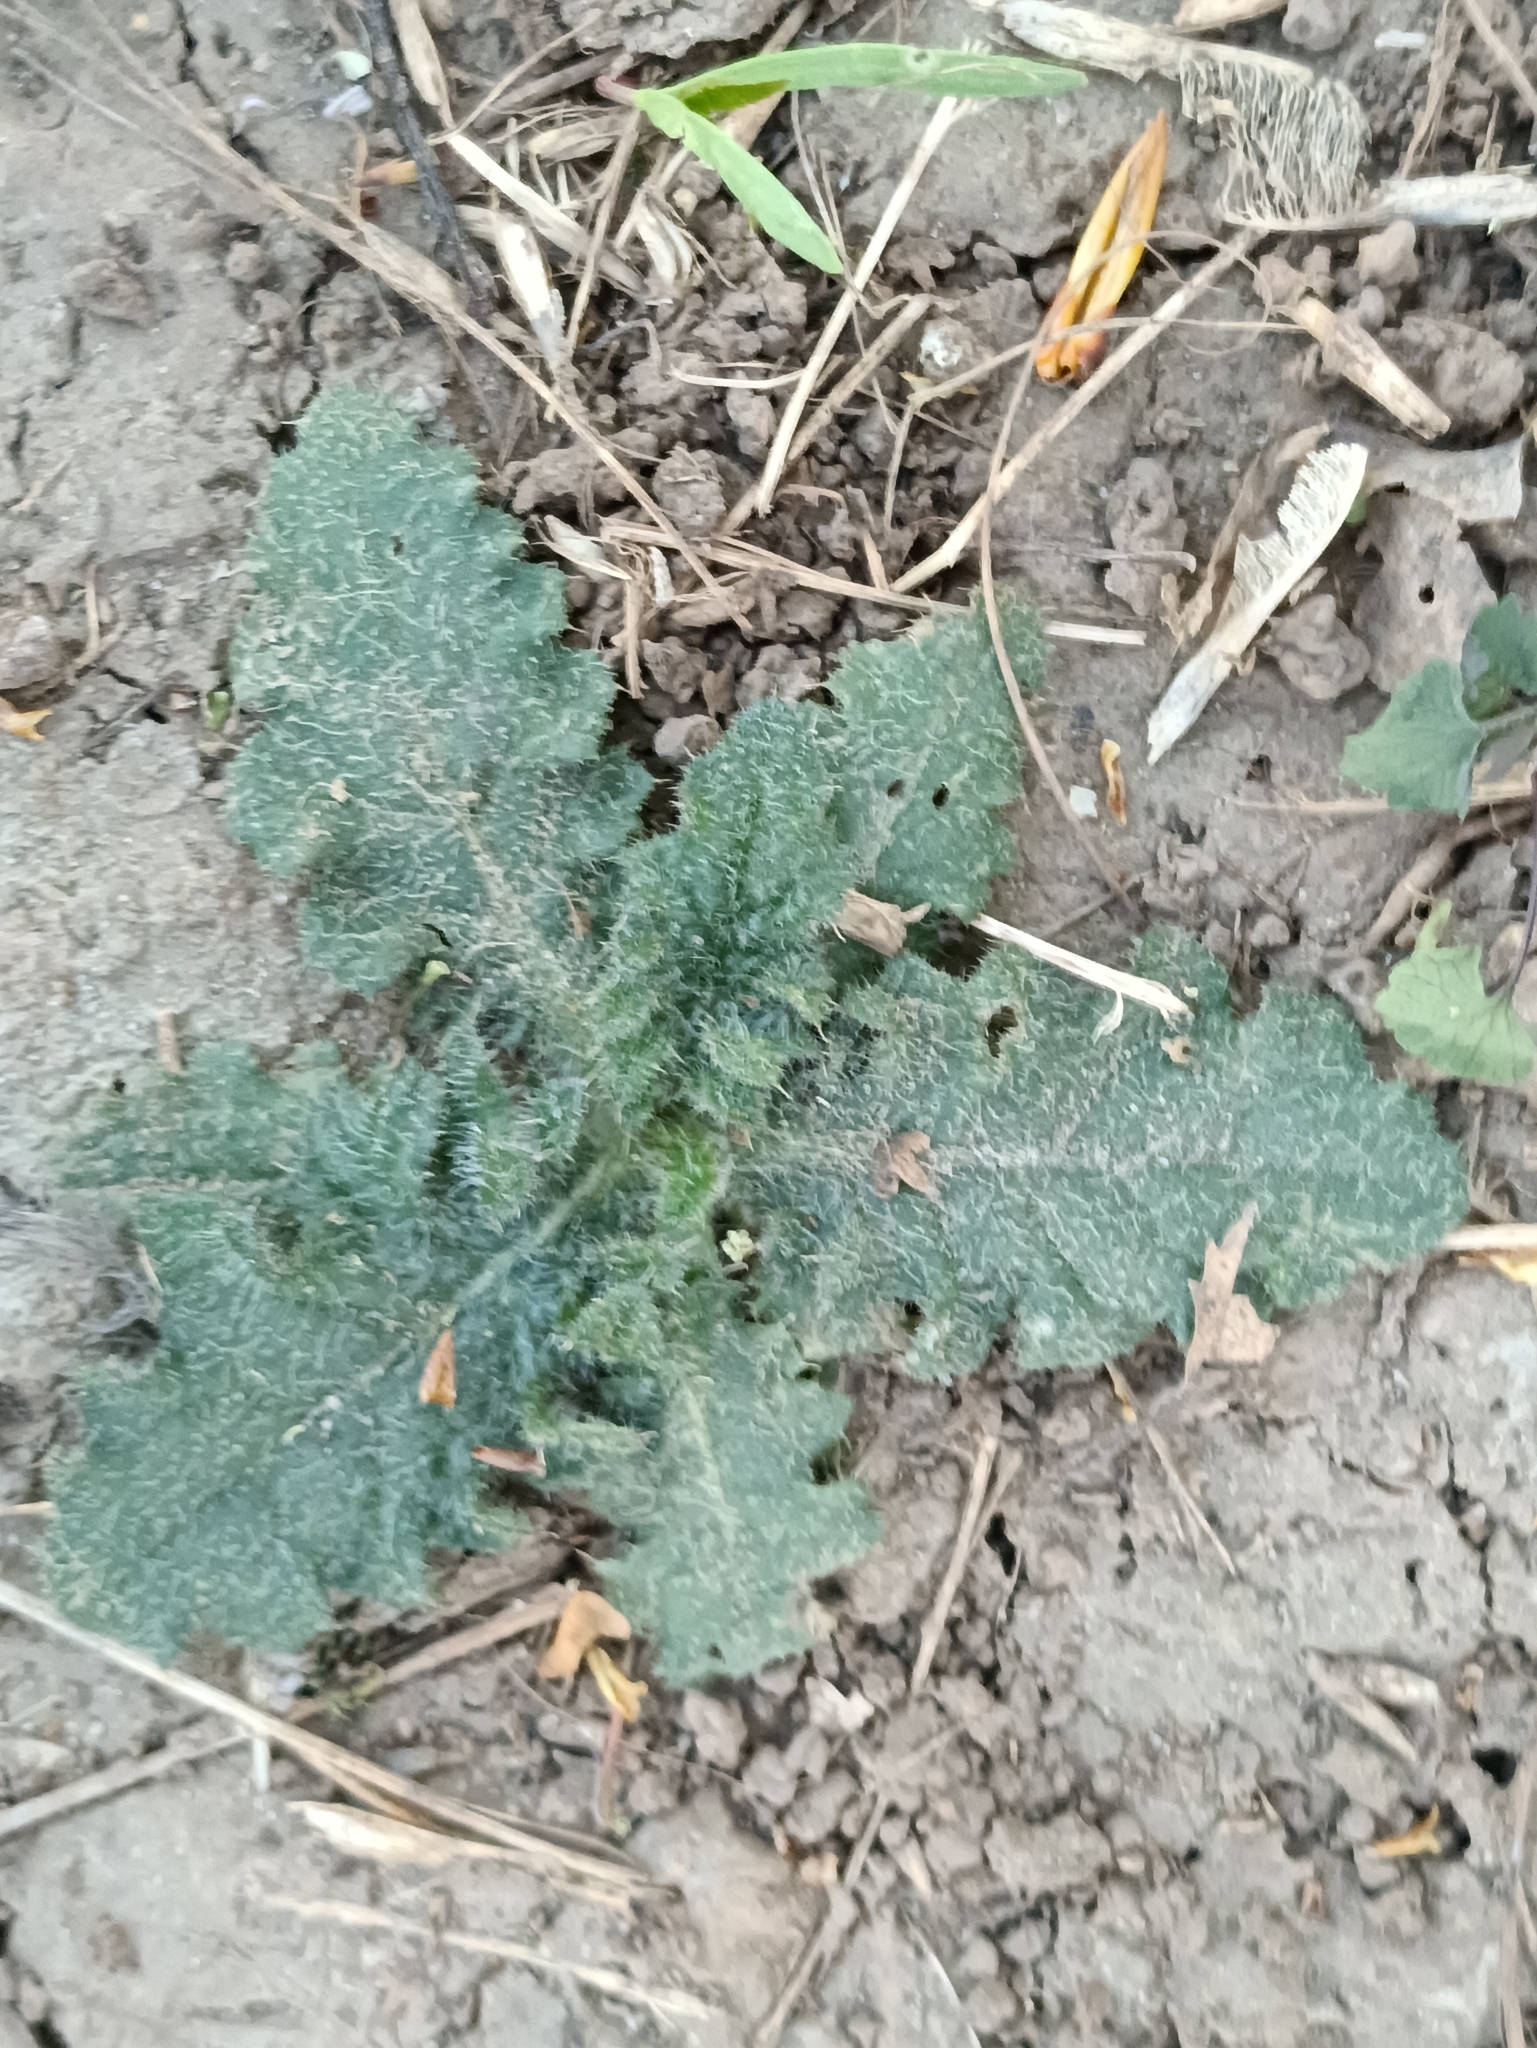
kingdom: Plantae
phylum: Tracheophyta
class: Magnoliopsida
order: Asterales
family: Asteraceae
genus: Cirsium
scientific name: Cirsium vulgare
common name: Bull thistle
